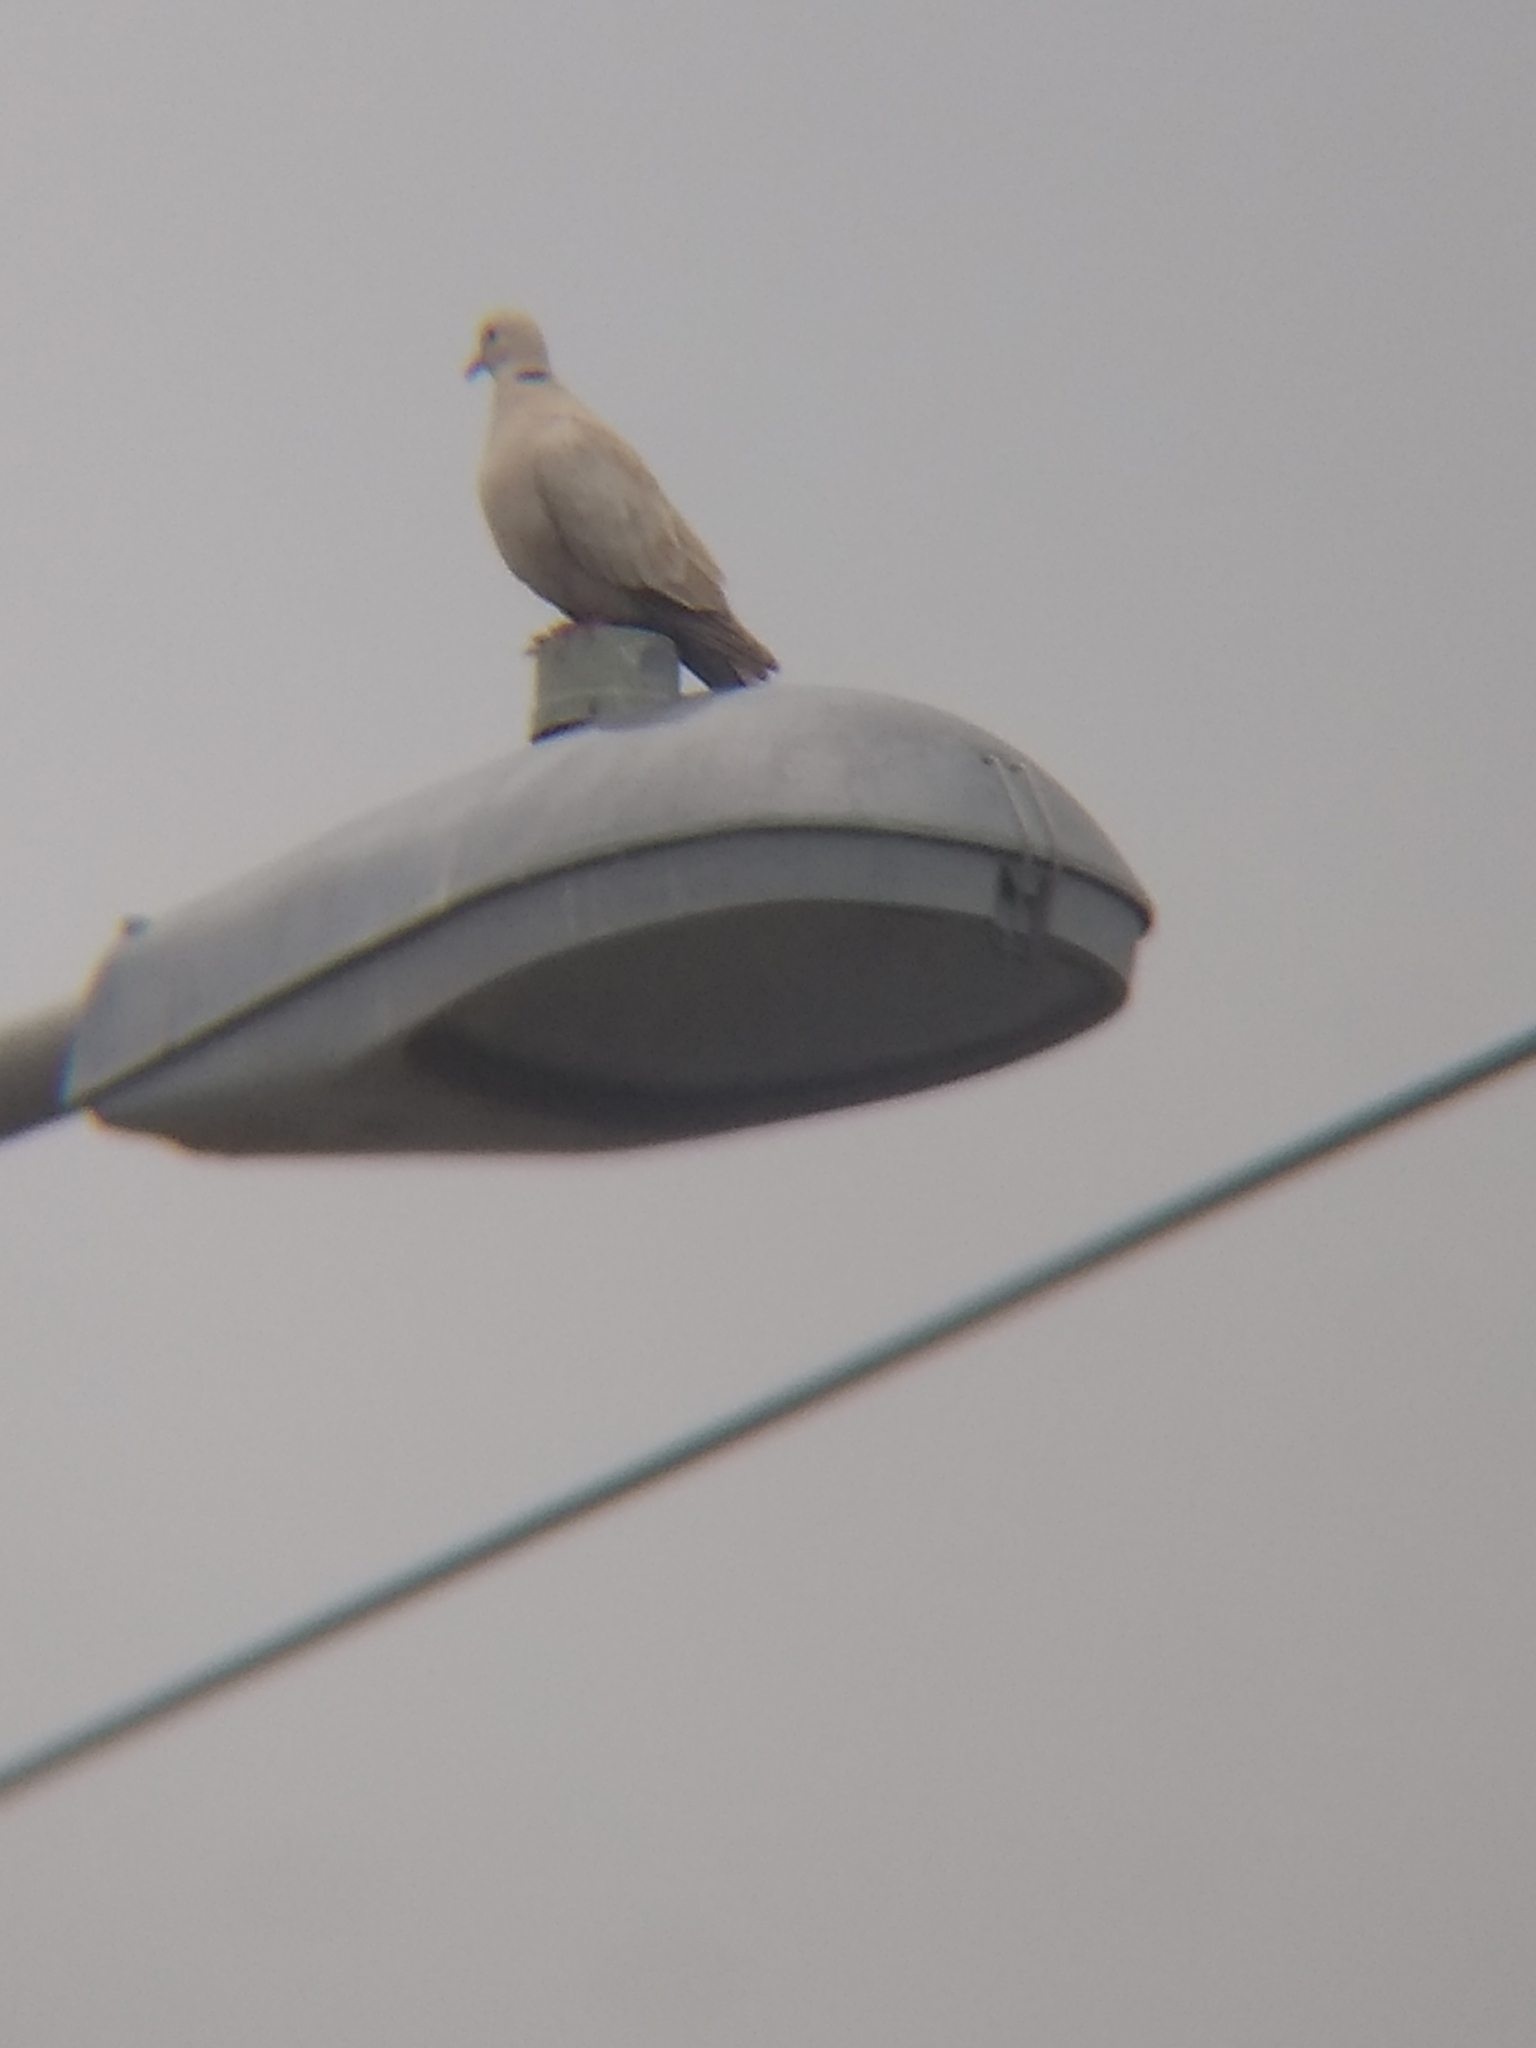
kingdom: Animalia
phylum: Chordata
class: Aves
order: Columbiformes
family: Columbidae
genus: Streptopelia
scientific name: Streptopelia decaocto
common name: Eurasian collared dove
